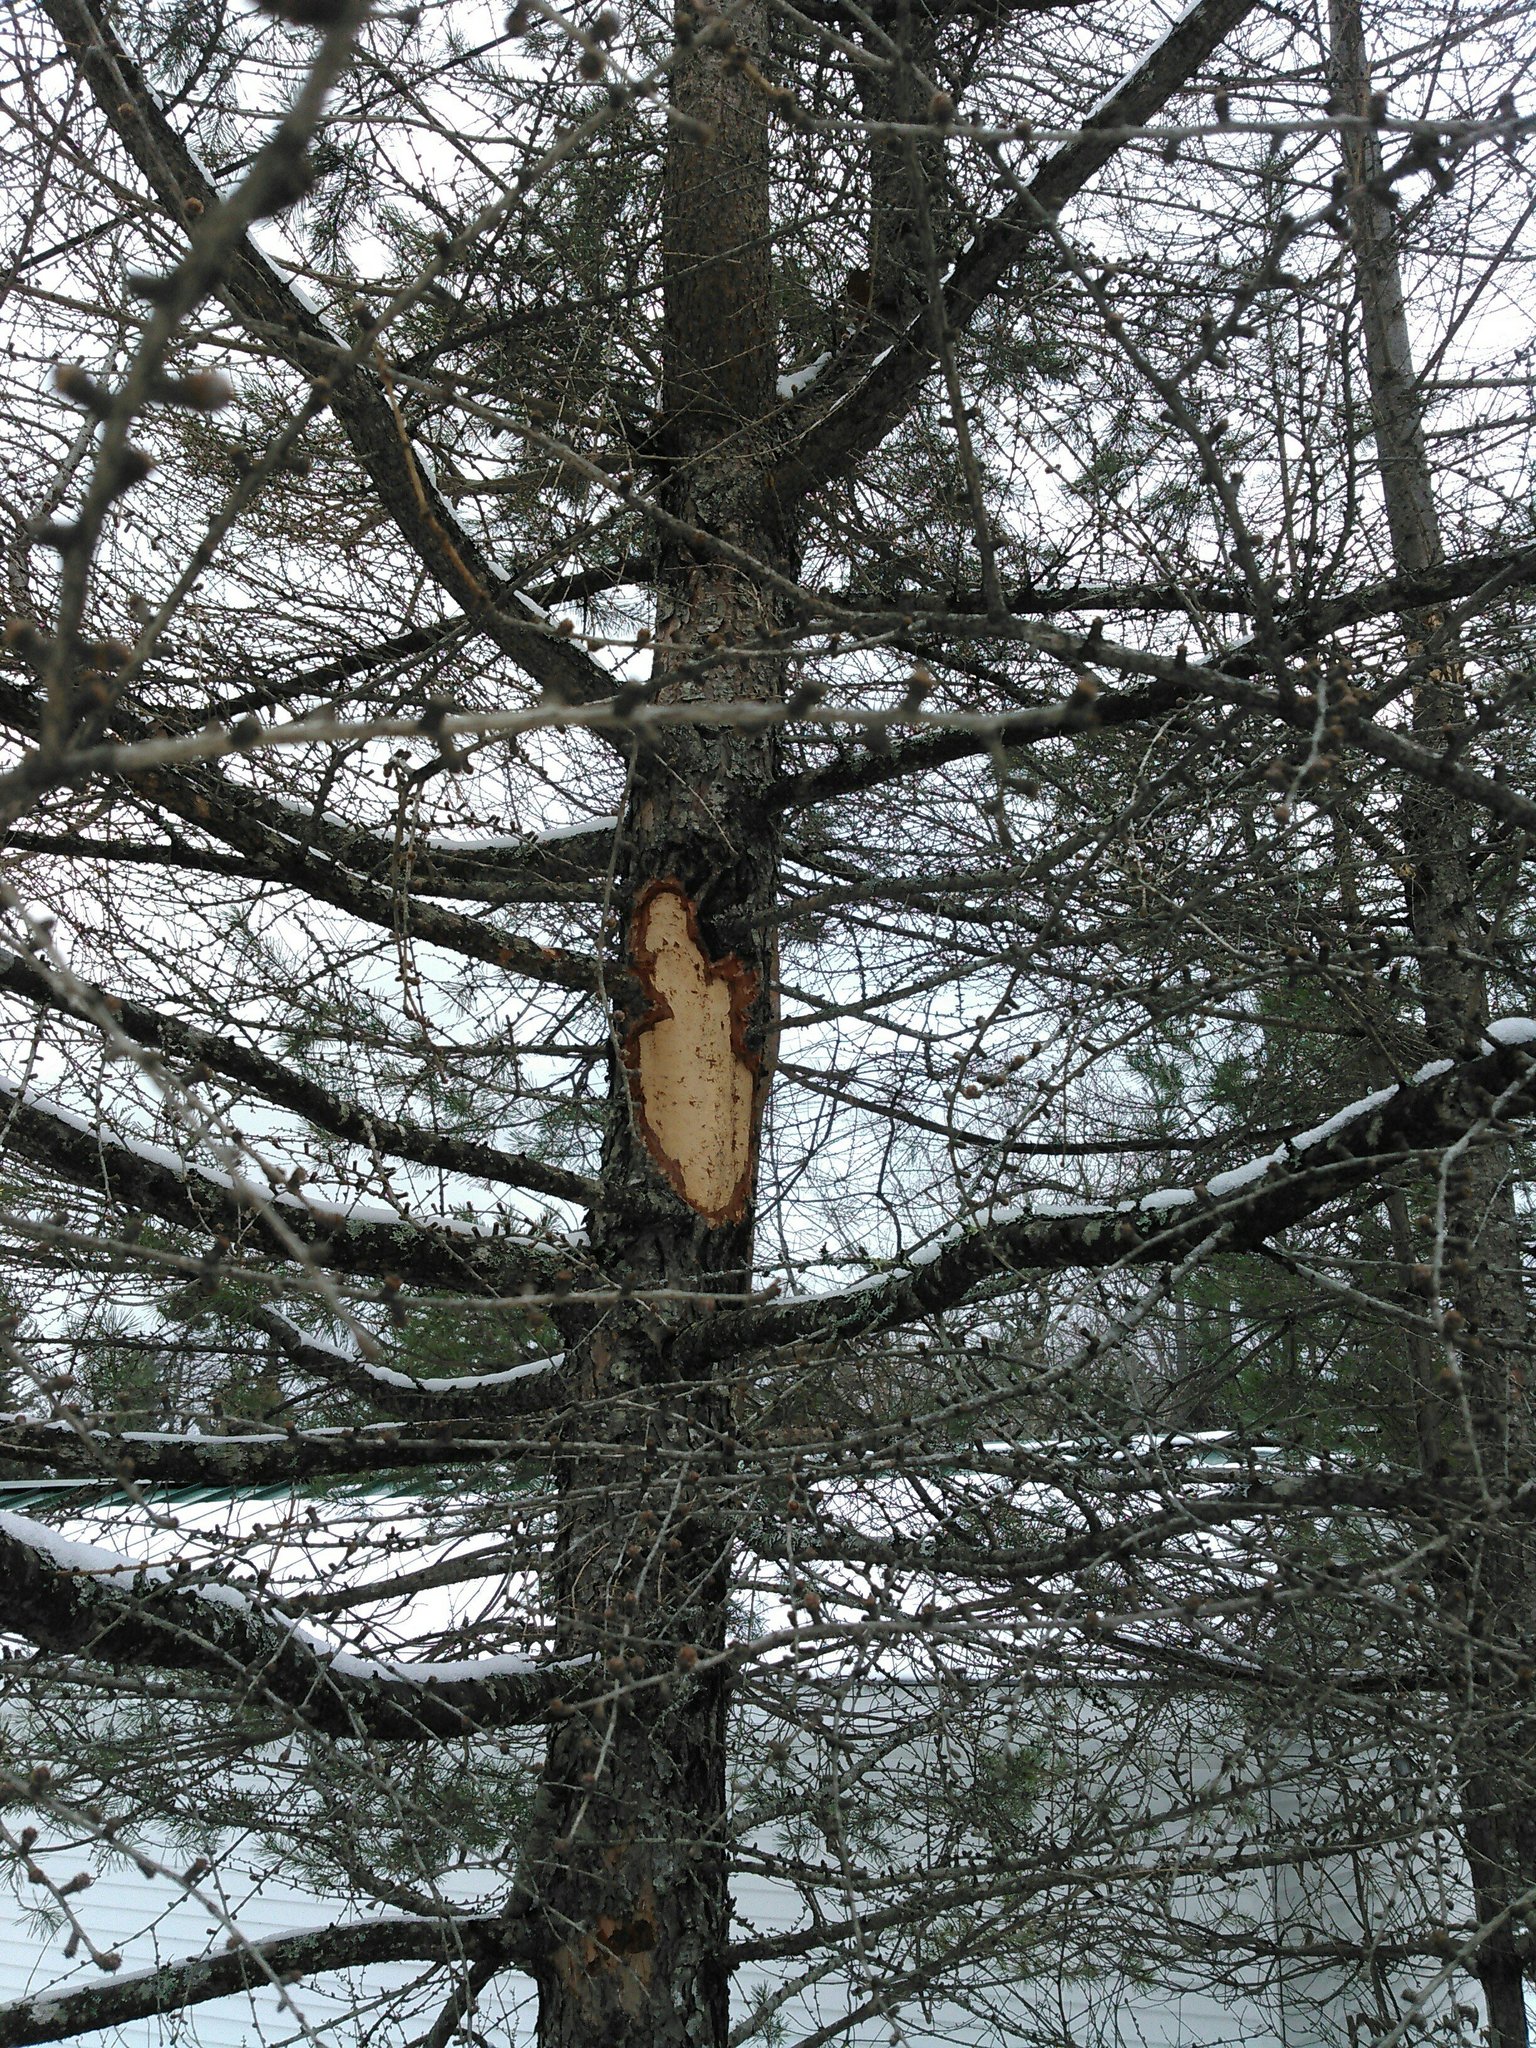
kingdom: Animalia
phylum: Chordata
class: Mammalia
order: Rodentia
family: Erethizontidae
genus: Erethizon
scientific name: Erethizon dorsatus
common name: North american porcupine
